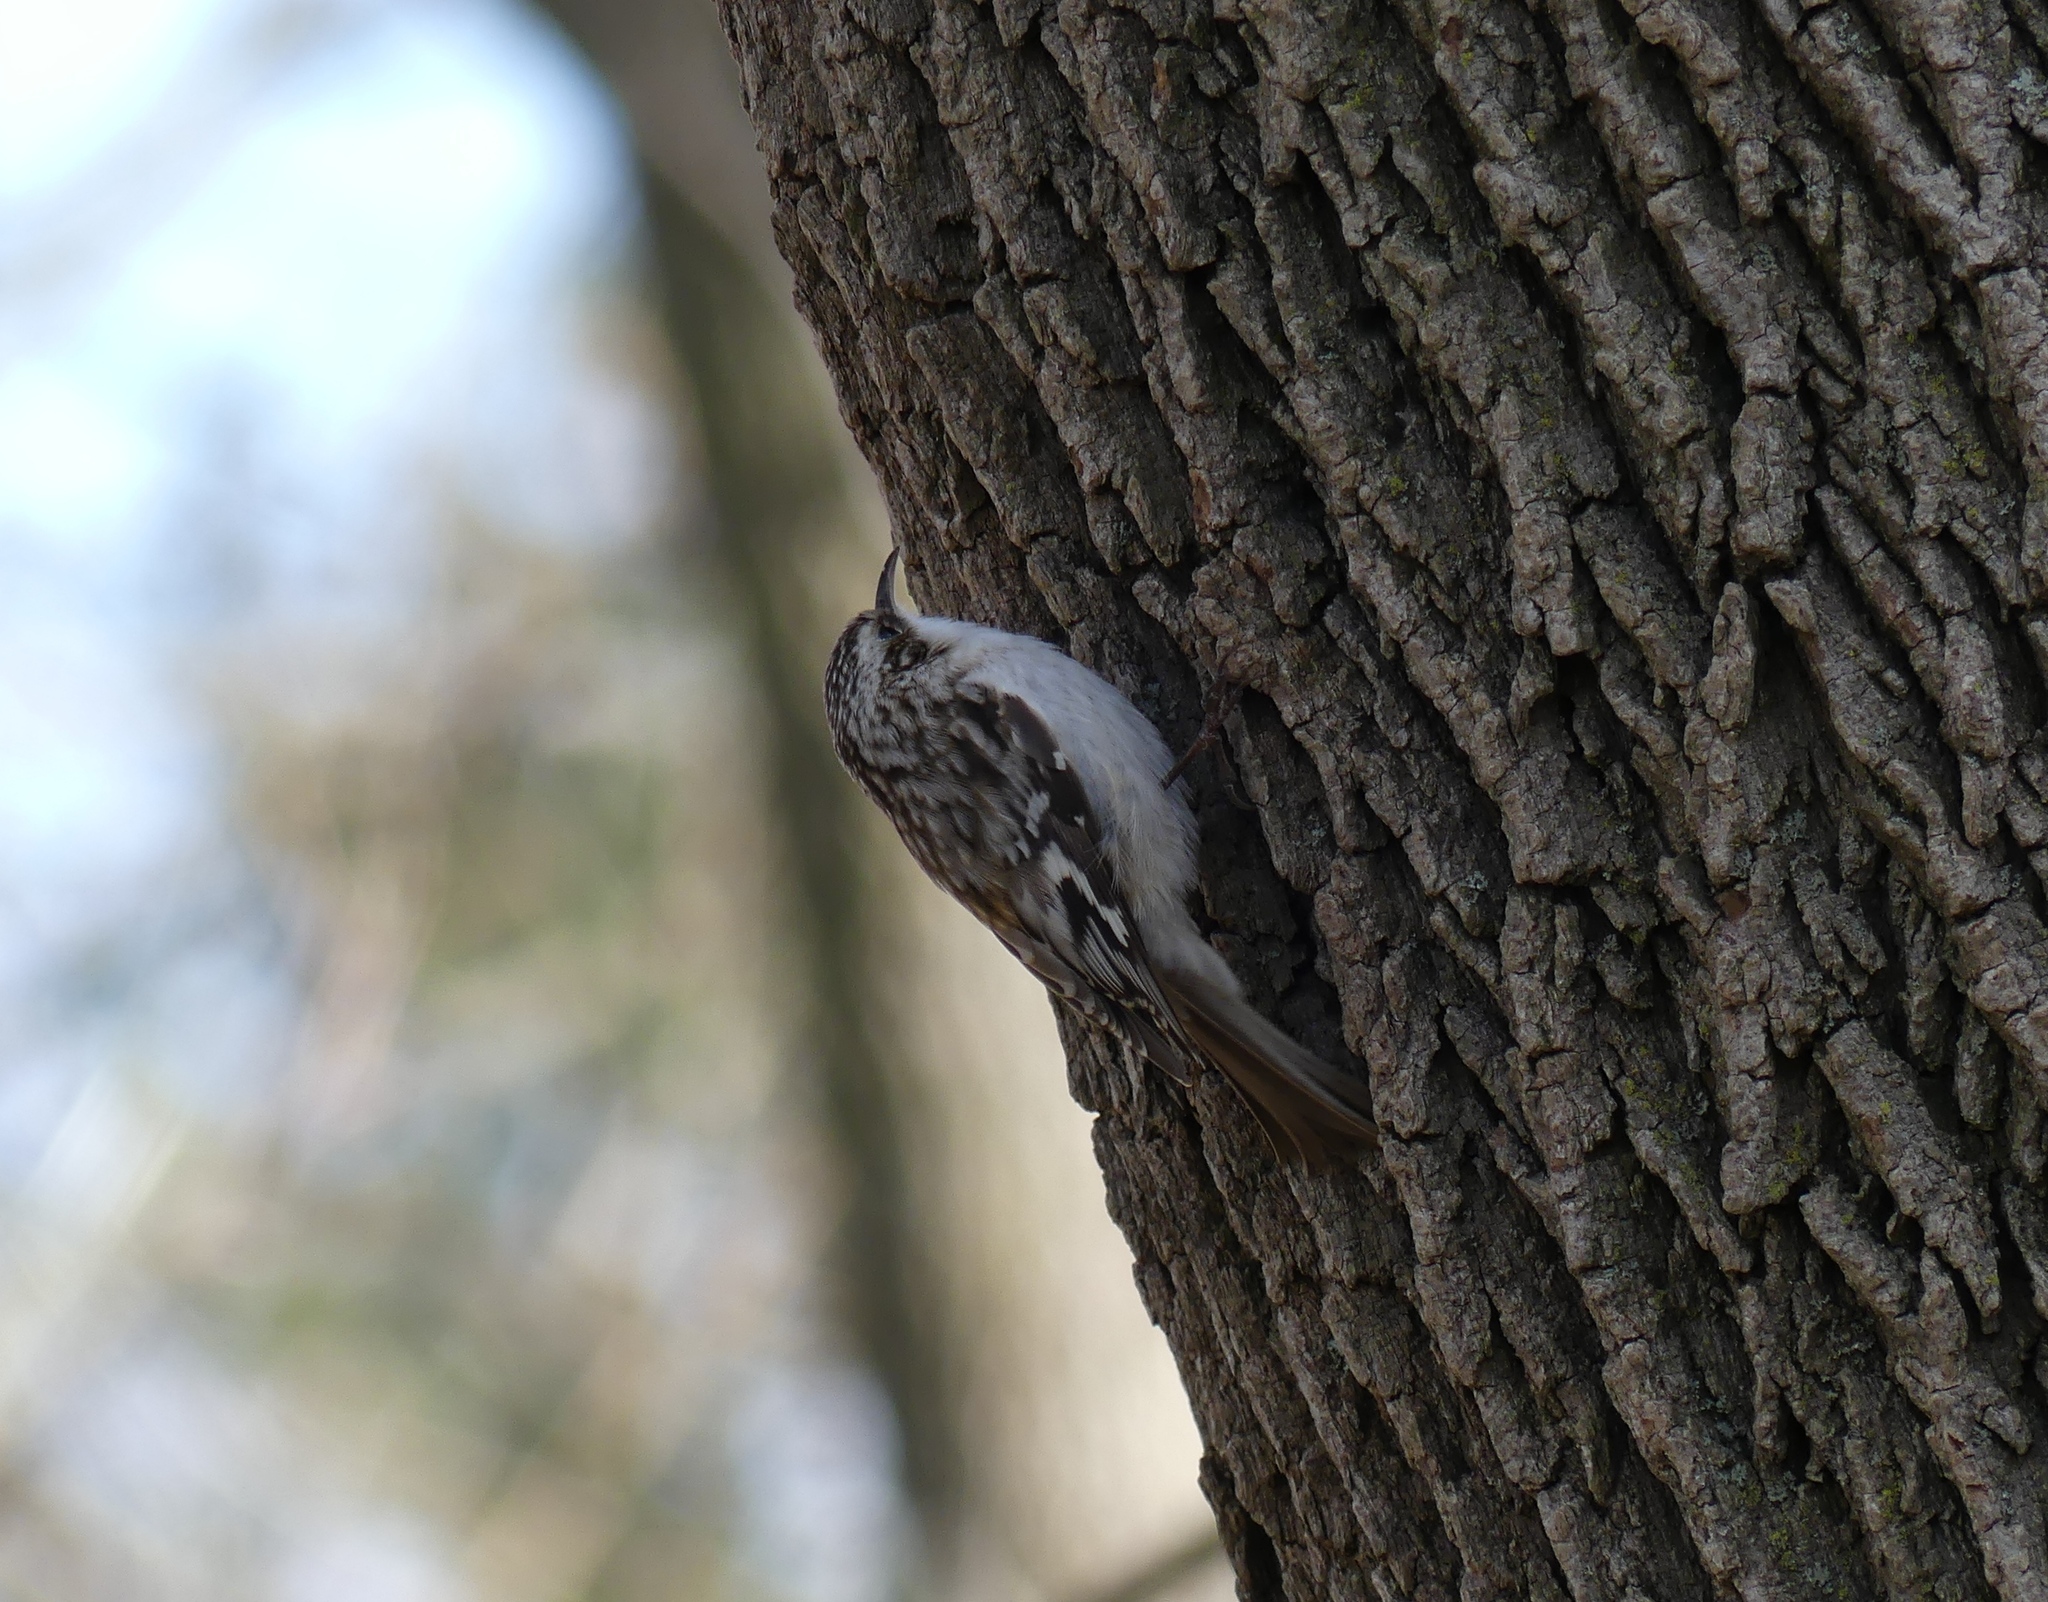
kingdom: Animalia
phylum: Chordata
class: Aves
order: Passeriformes
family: Certhiidae
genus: Certhia
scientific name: Certhia americana
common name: Brown creeper
